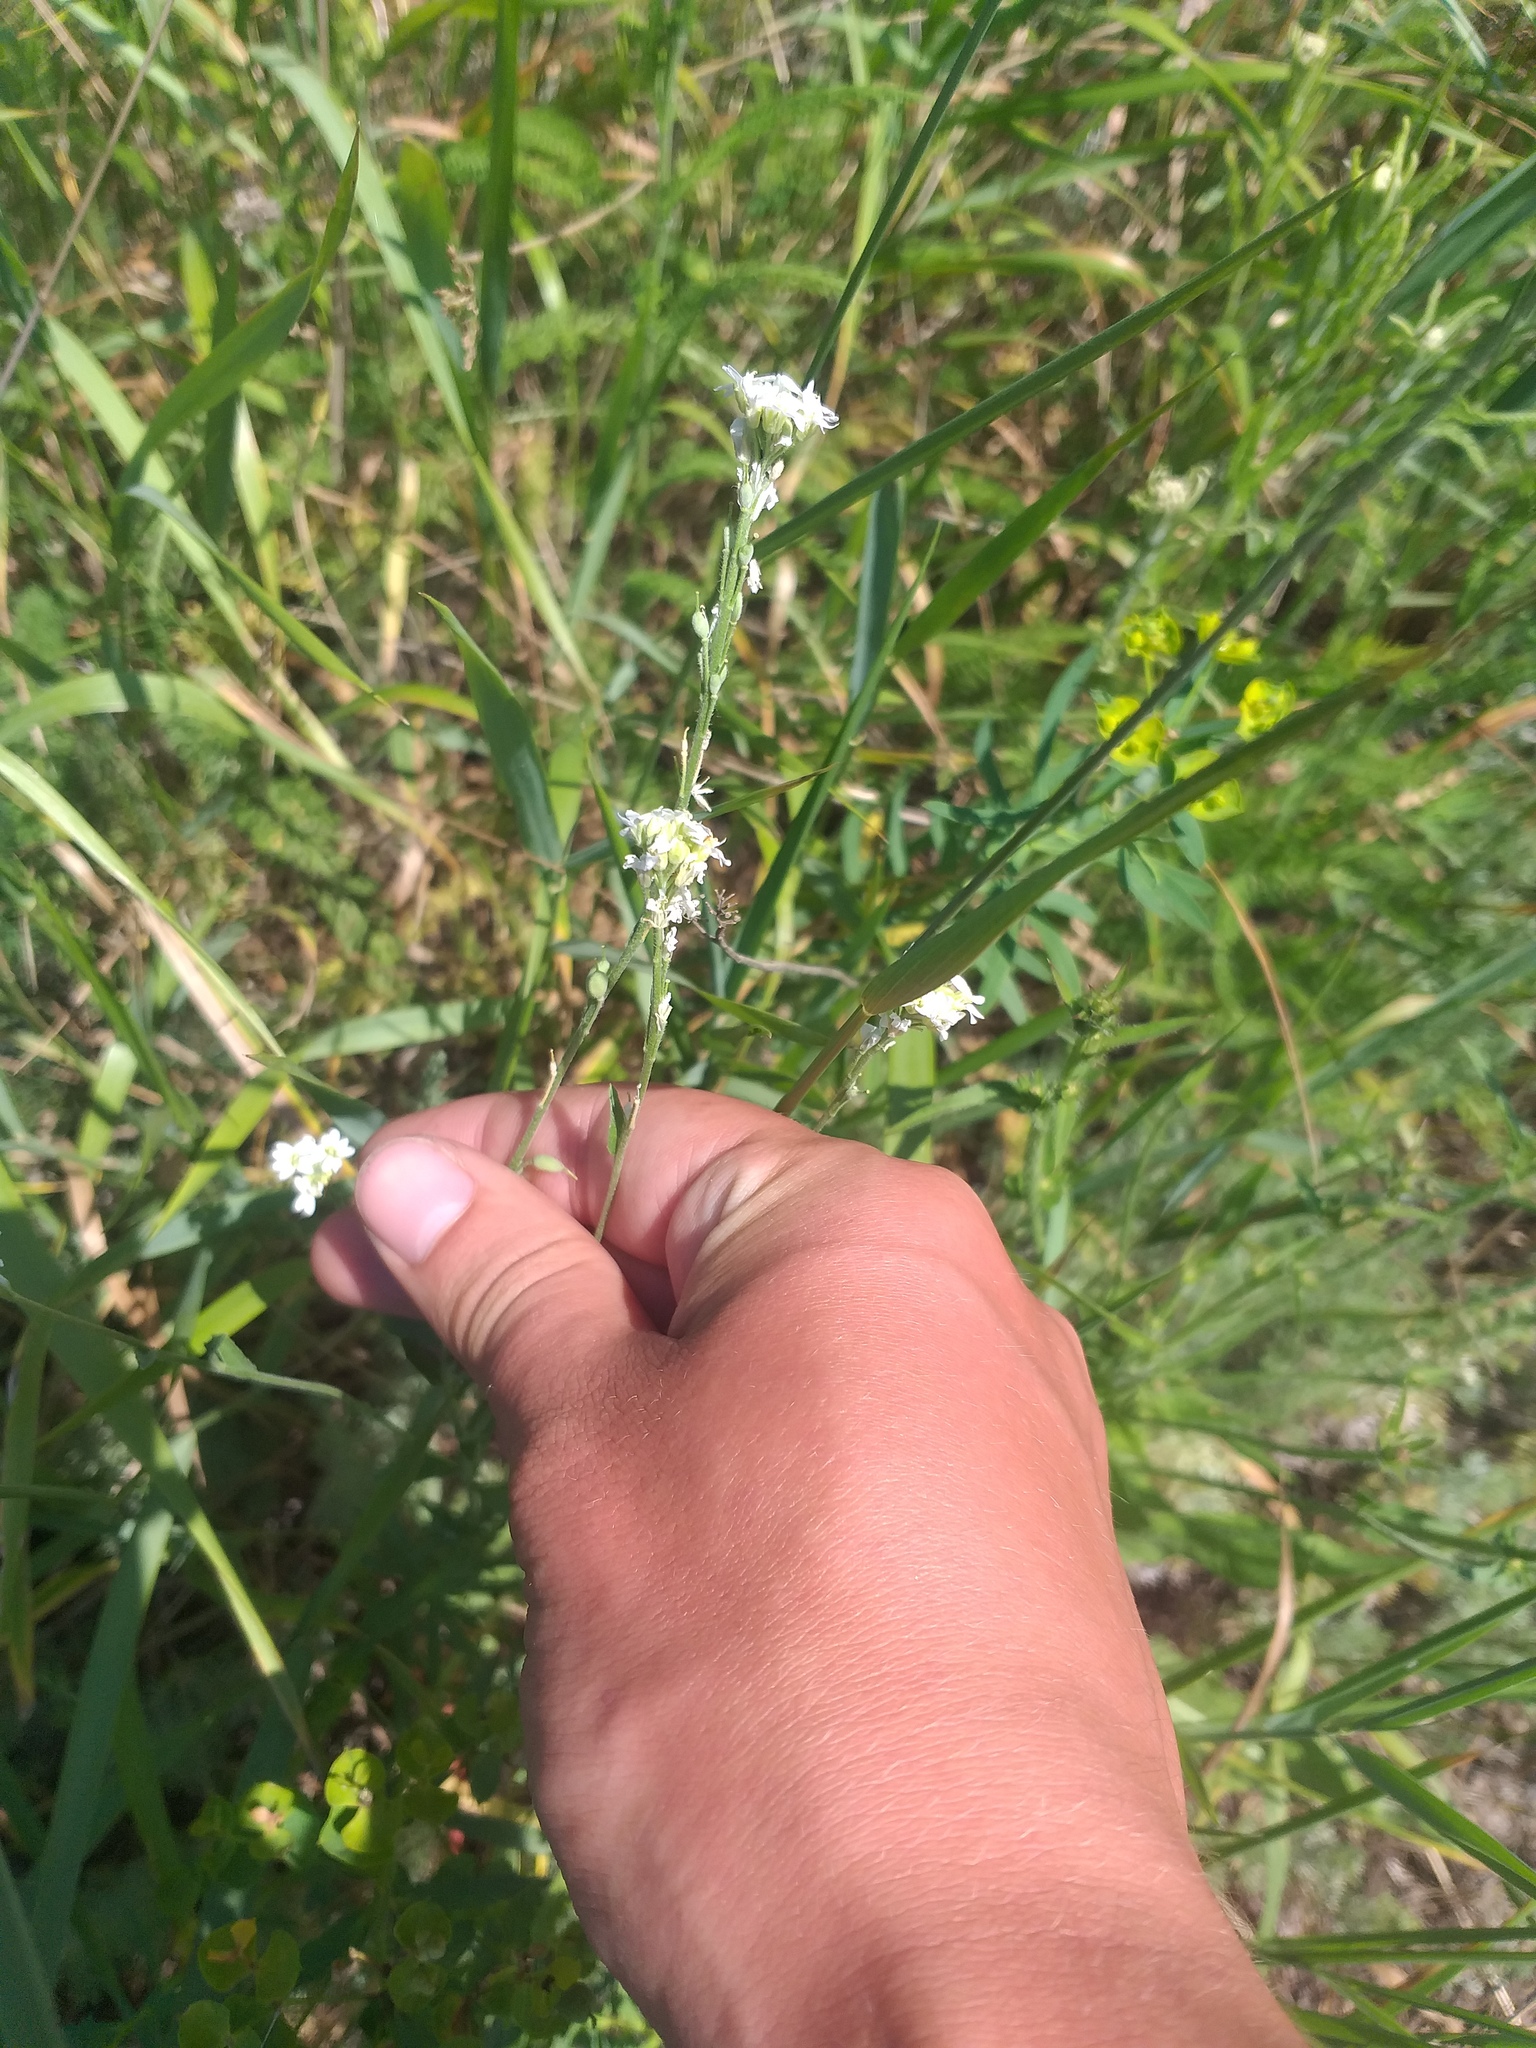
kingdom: Plantae
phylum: Tracheophyta
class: Magnoliopsida
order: Brassicales
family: Brassicaceae
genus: Berteroa
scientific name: Berteroa incana
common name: Hoary alison
